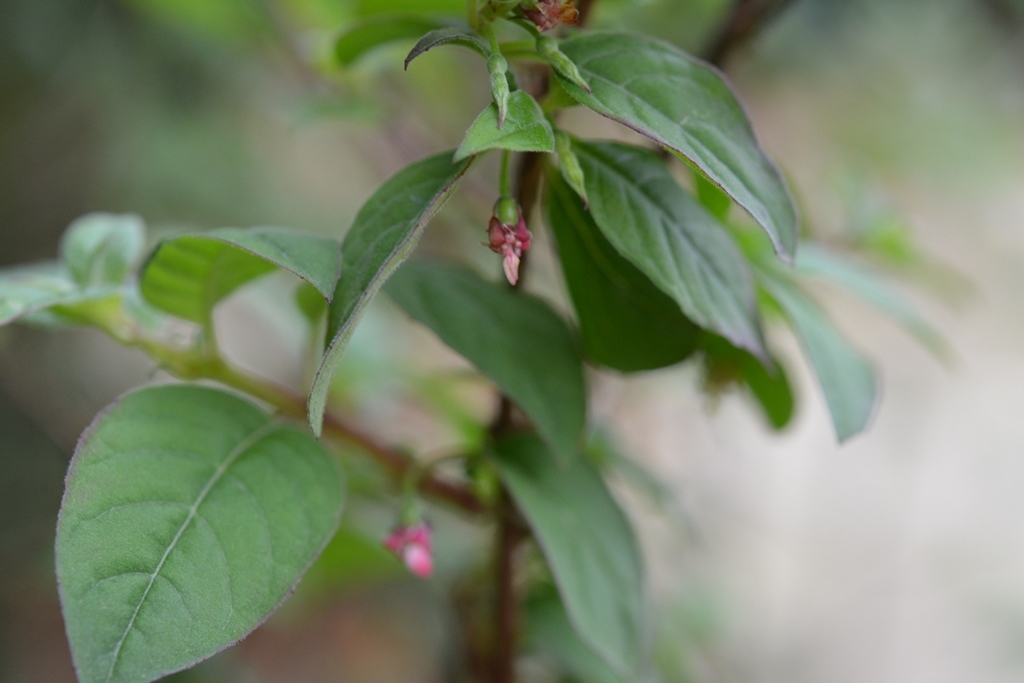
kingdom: Plantae
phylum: Tracheophyta
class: Magnoliopsida
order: Myrtales
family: Onagraceae
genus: Fuchsia
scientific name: Fuchsia encliandra
